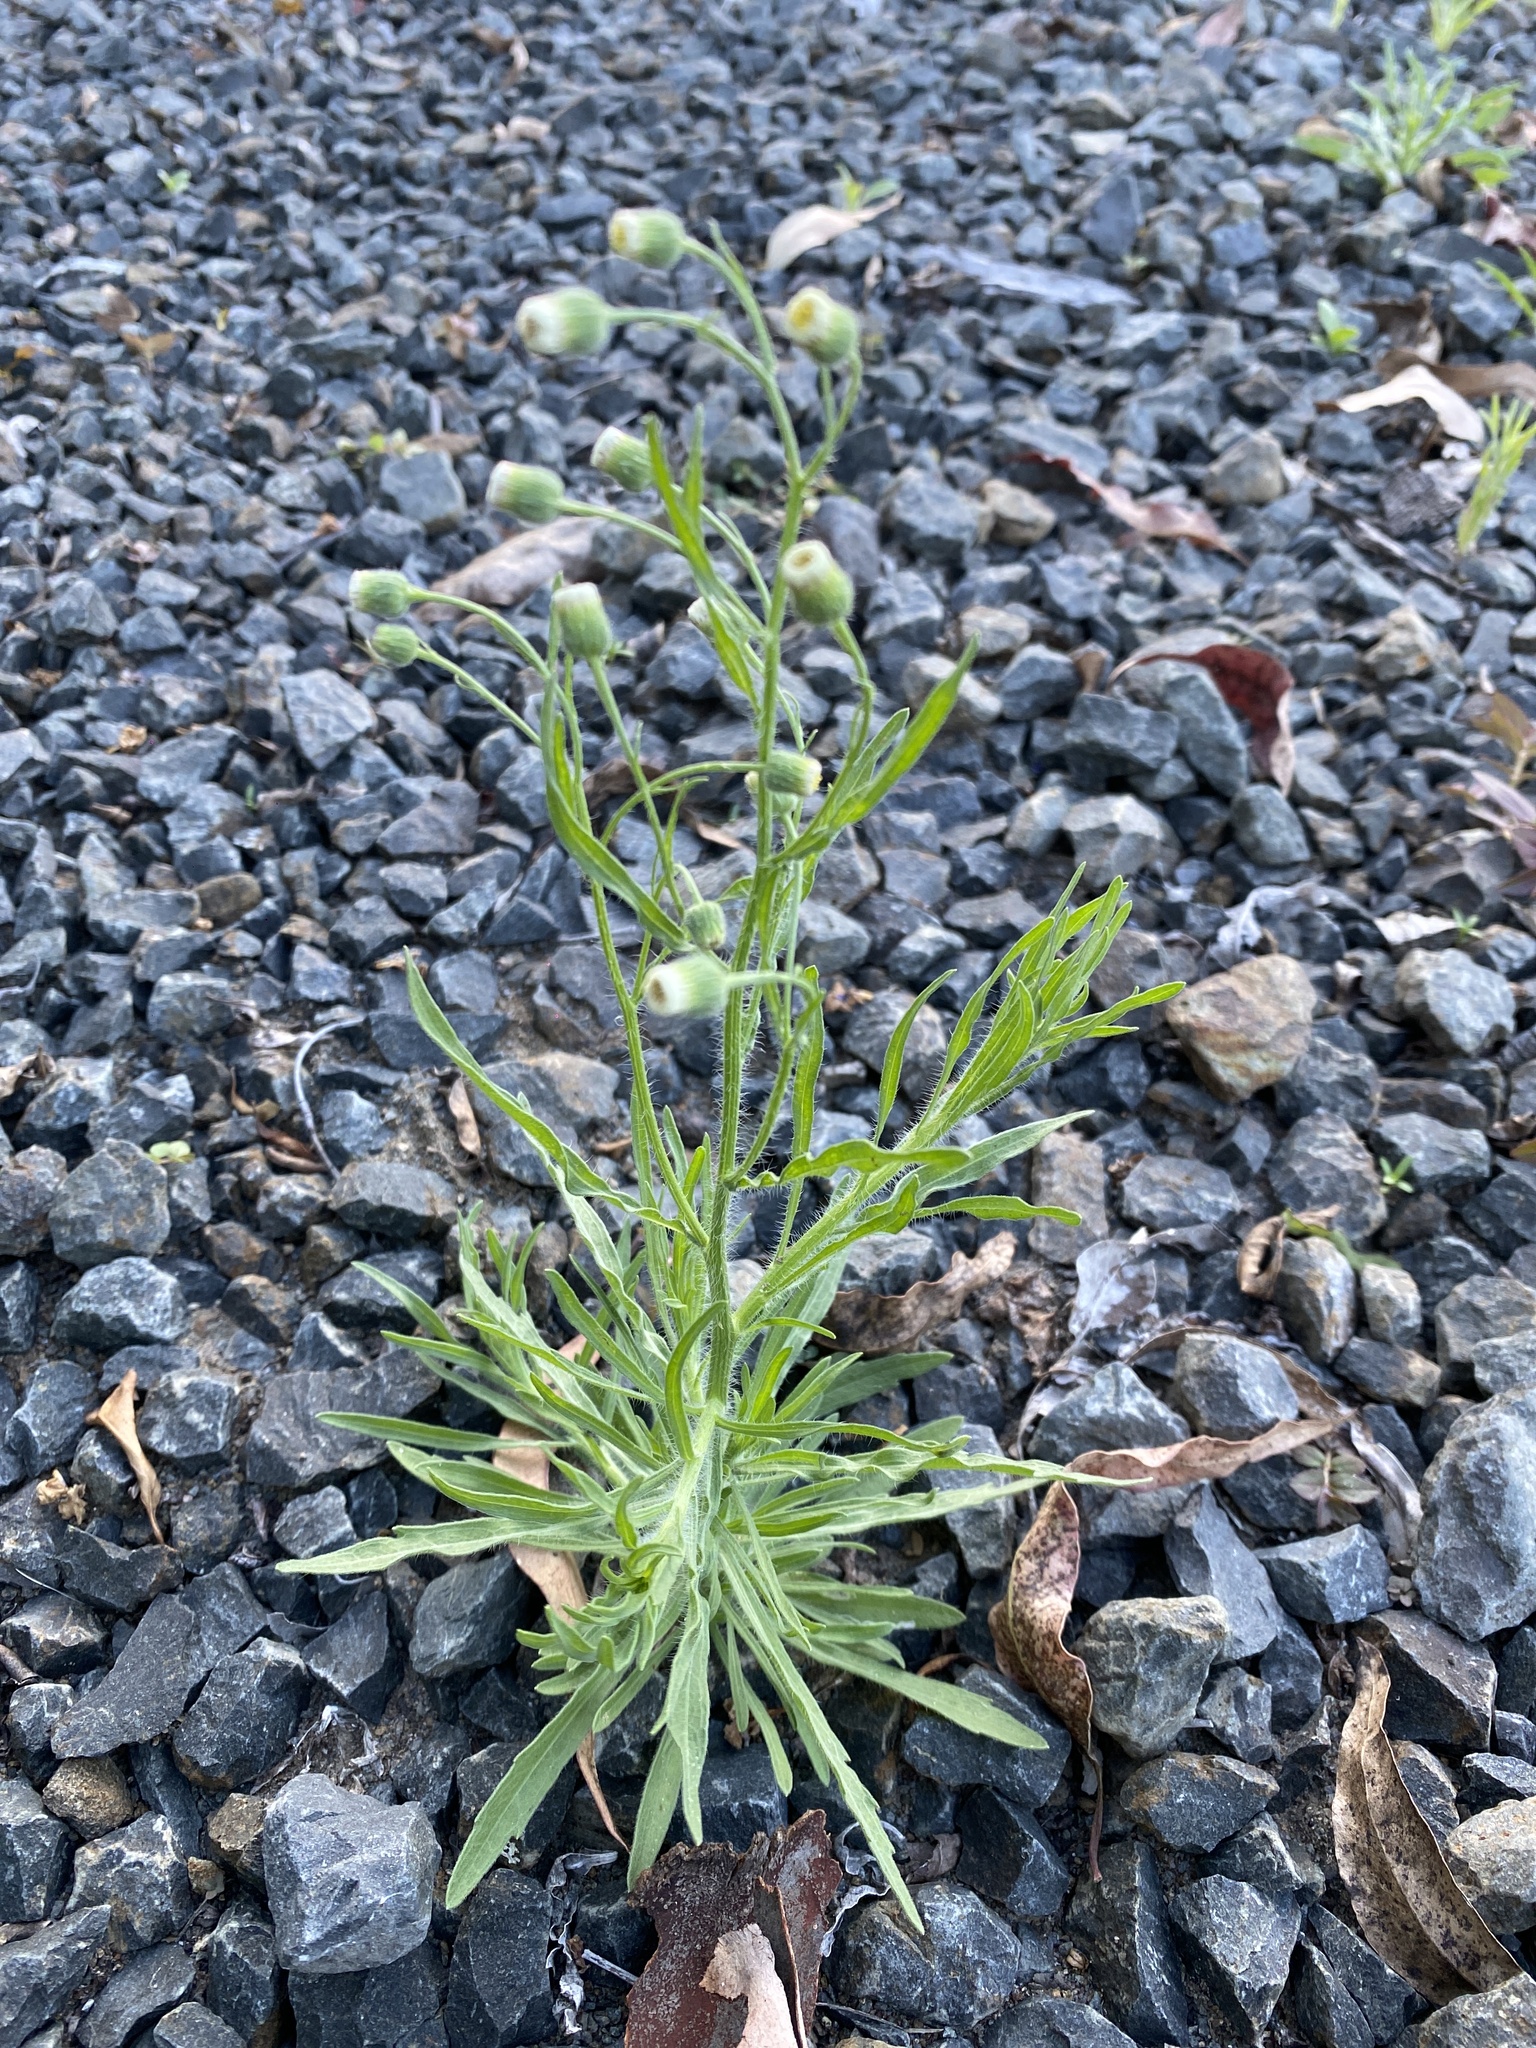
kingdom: Plantae
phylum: Tracheophyta
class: Magnoliopsida
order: Asterales
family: Asteraceae
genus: Erigeron
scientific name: Erigeron bonariensis
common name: Argentine fleabane
